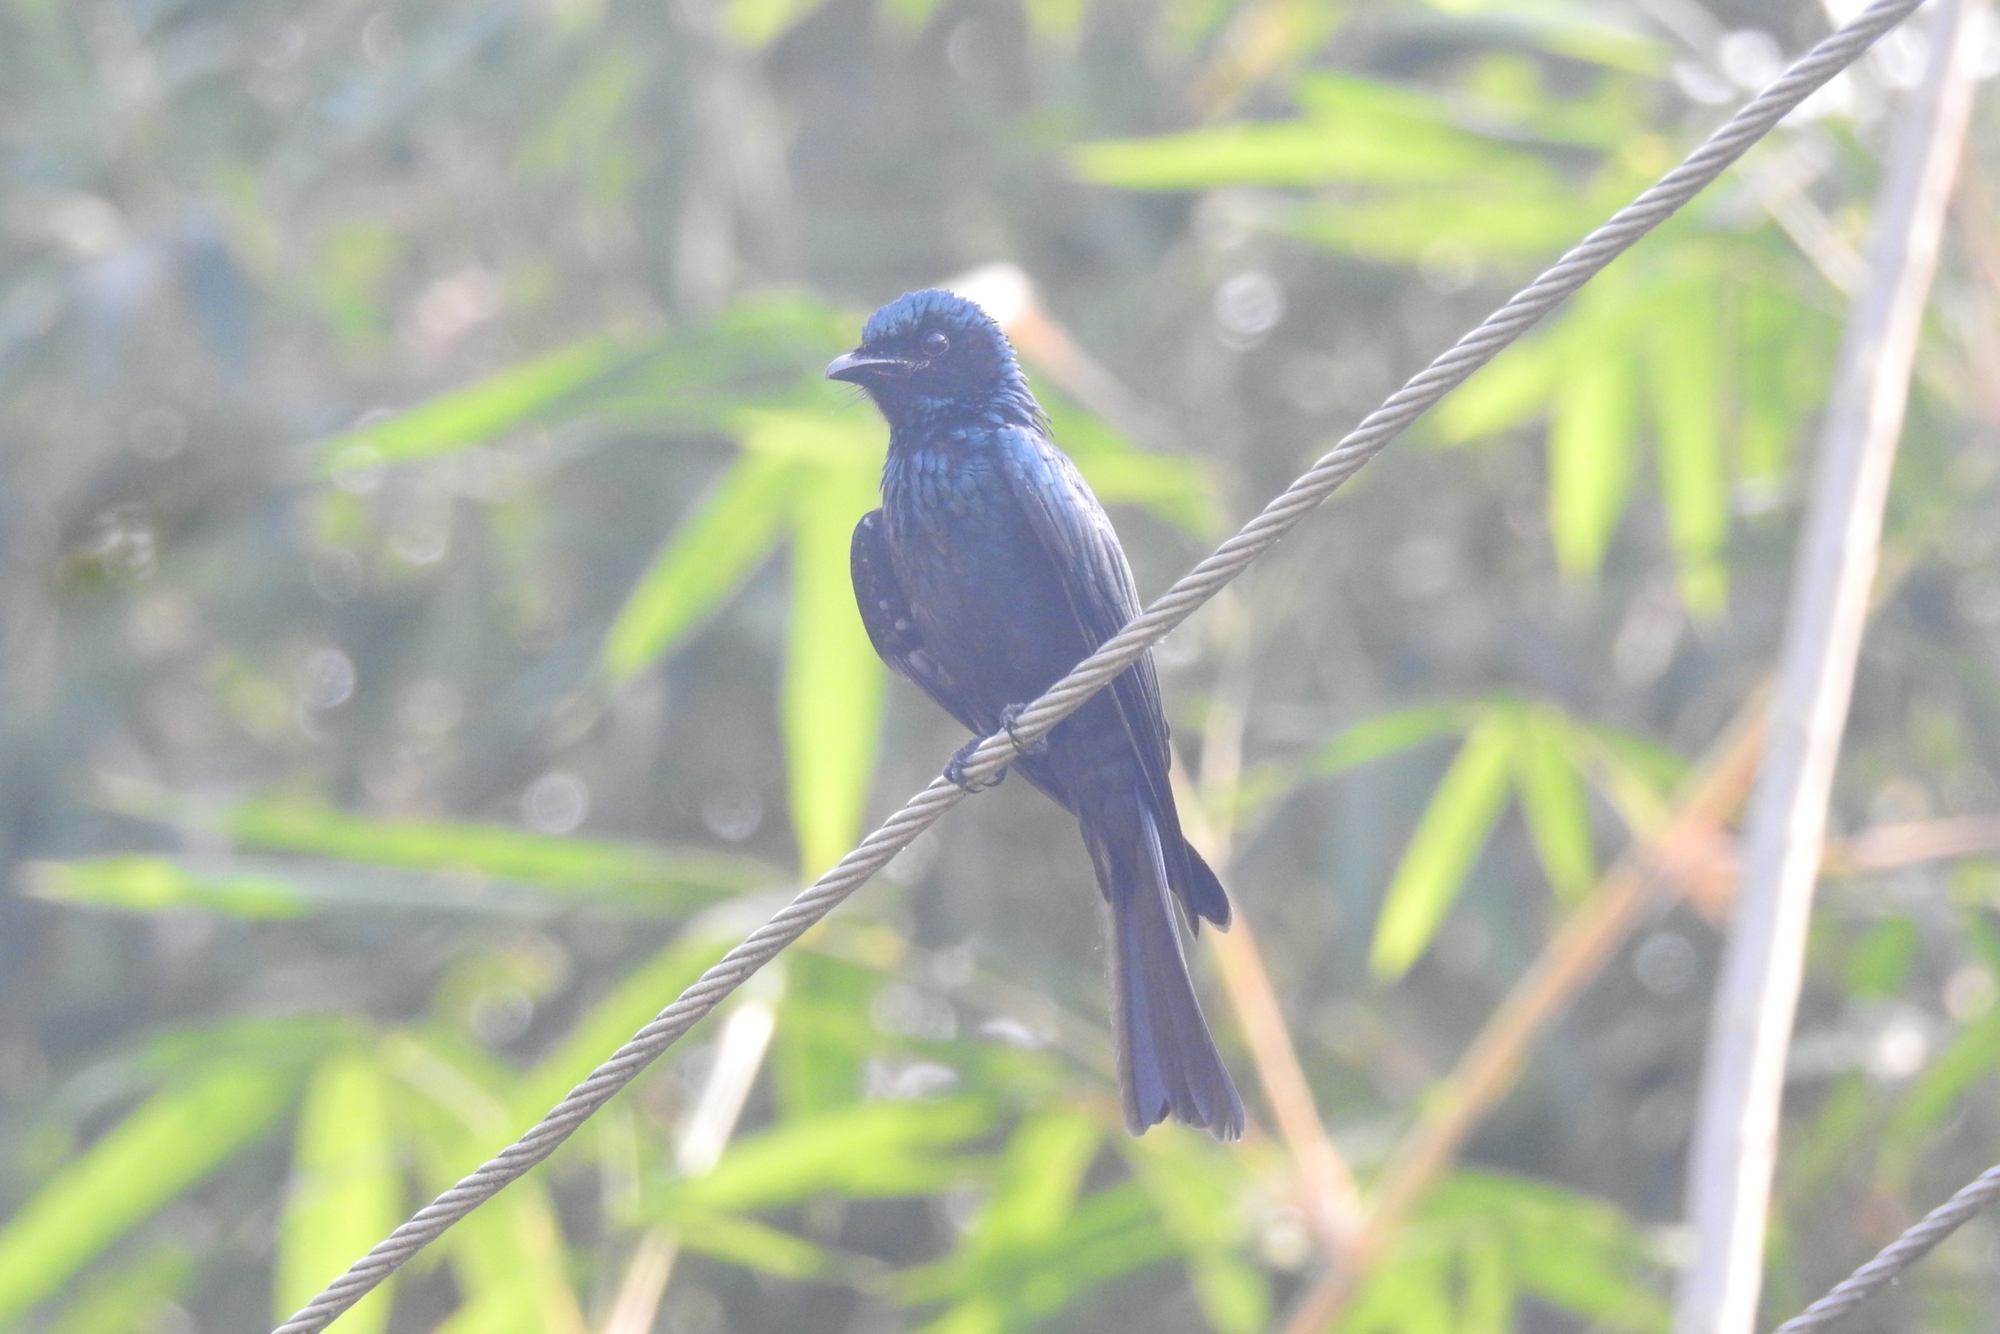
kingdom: Animalia
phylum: Chordata
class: Aves
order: Passeriformes
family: Dicruridae
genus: Dicrurus
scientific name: Dicrurus aeneus
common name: Bronzed drongo
